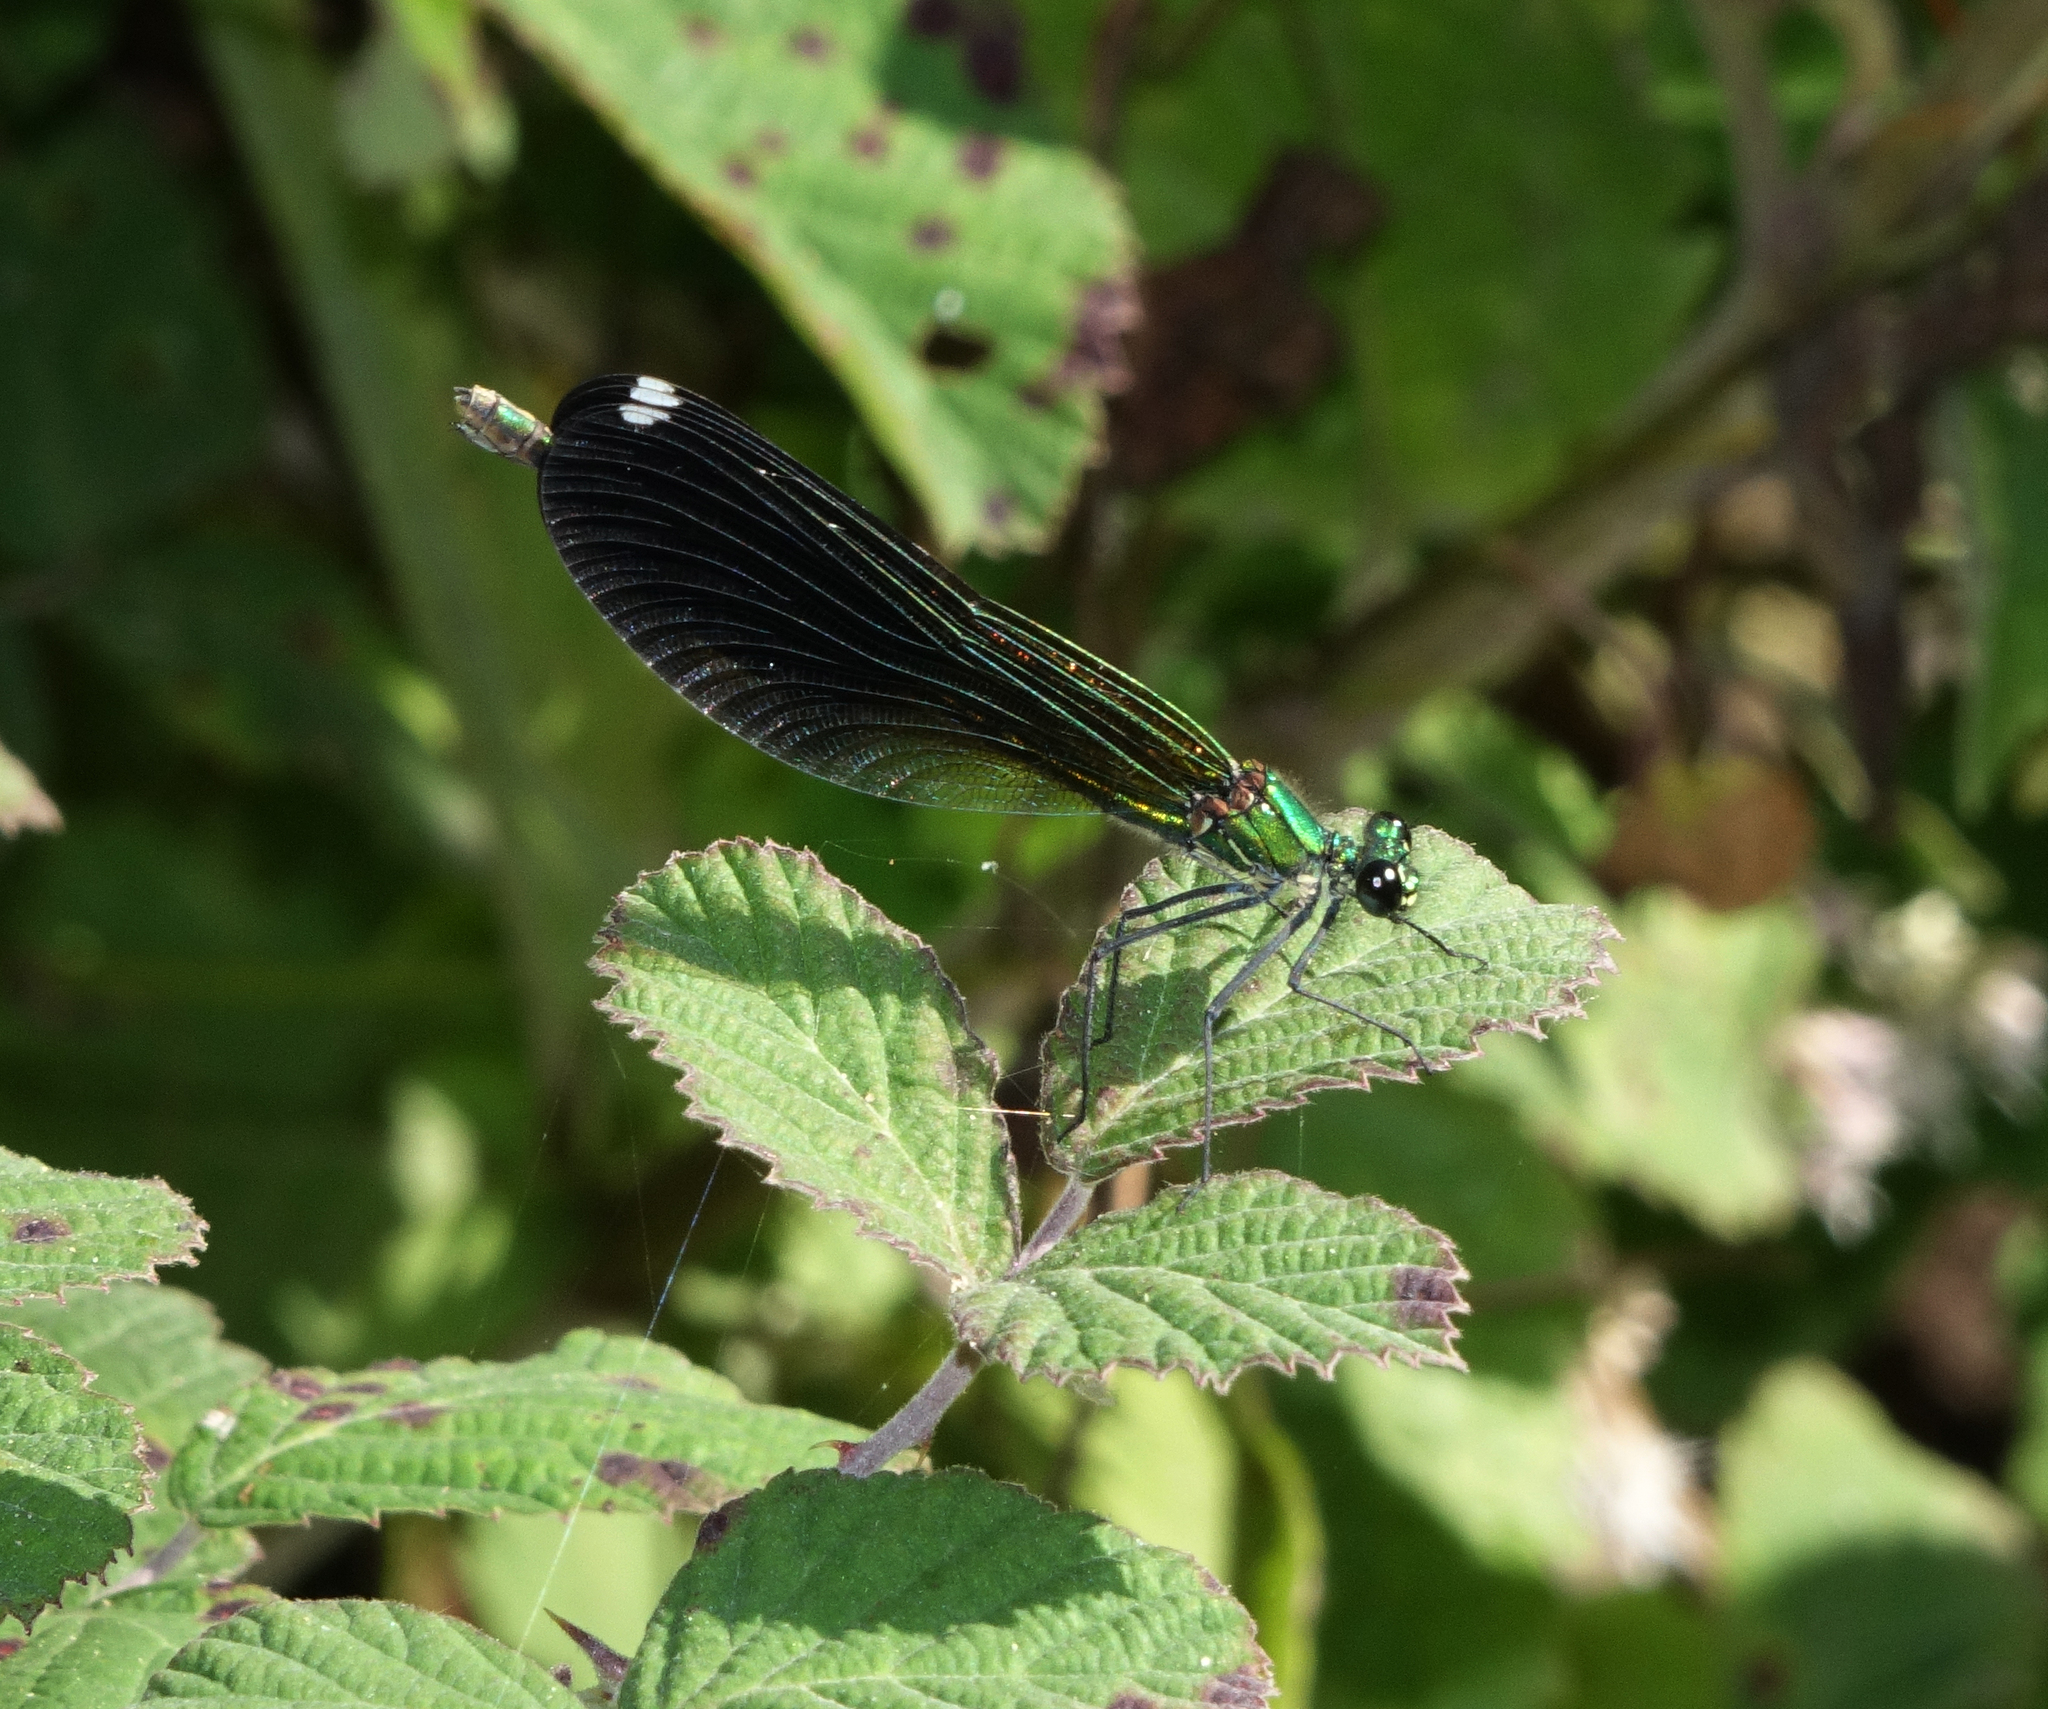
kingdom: Animalia
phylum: Arthropoda
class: Insecta
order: Odonata
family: Calopterygidae
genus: Calopteryx
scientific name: Calopteryx splendens
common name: Banded demoiselle
